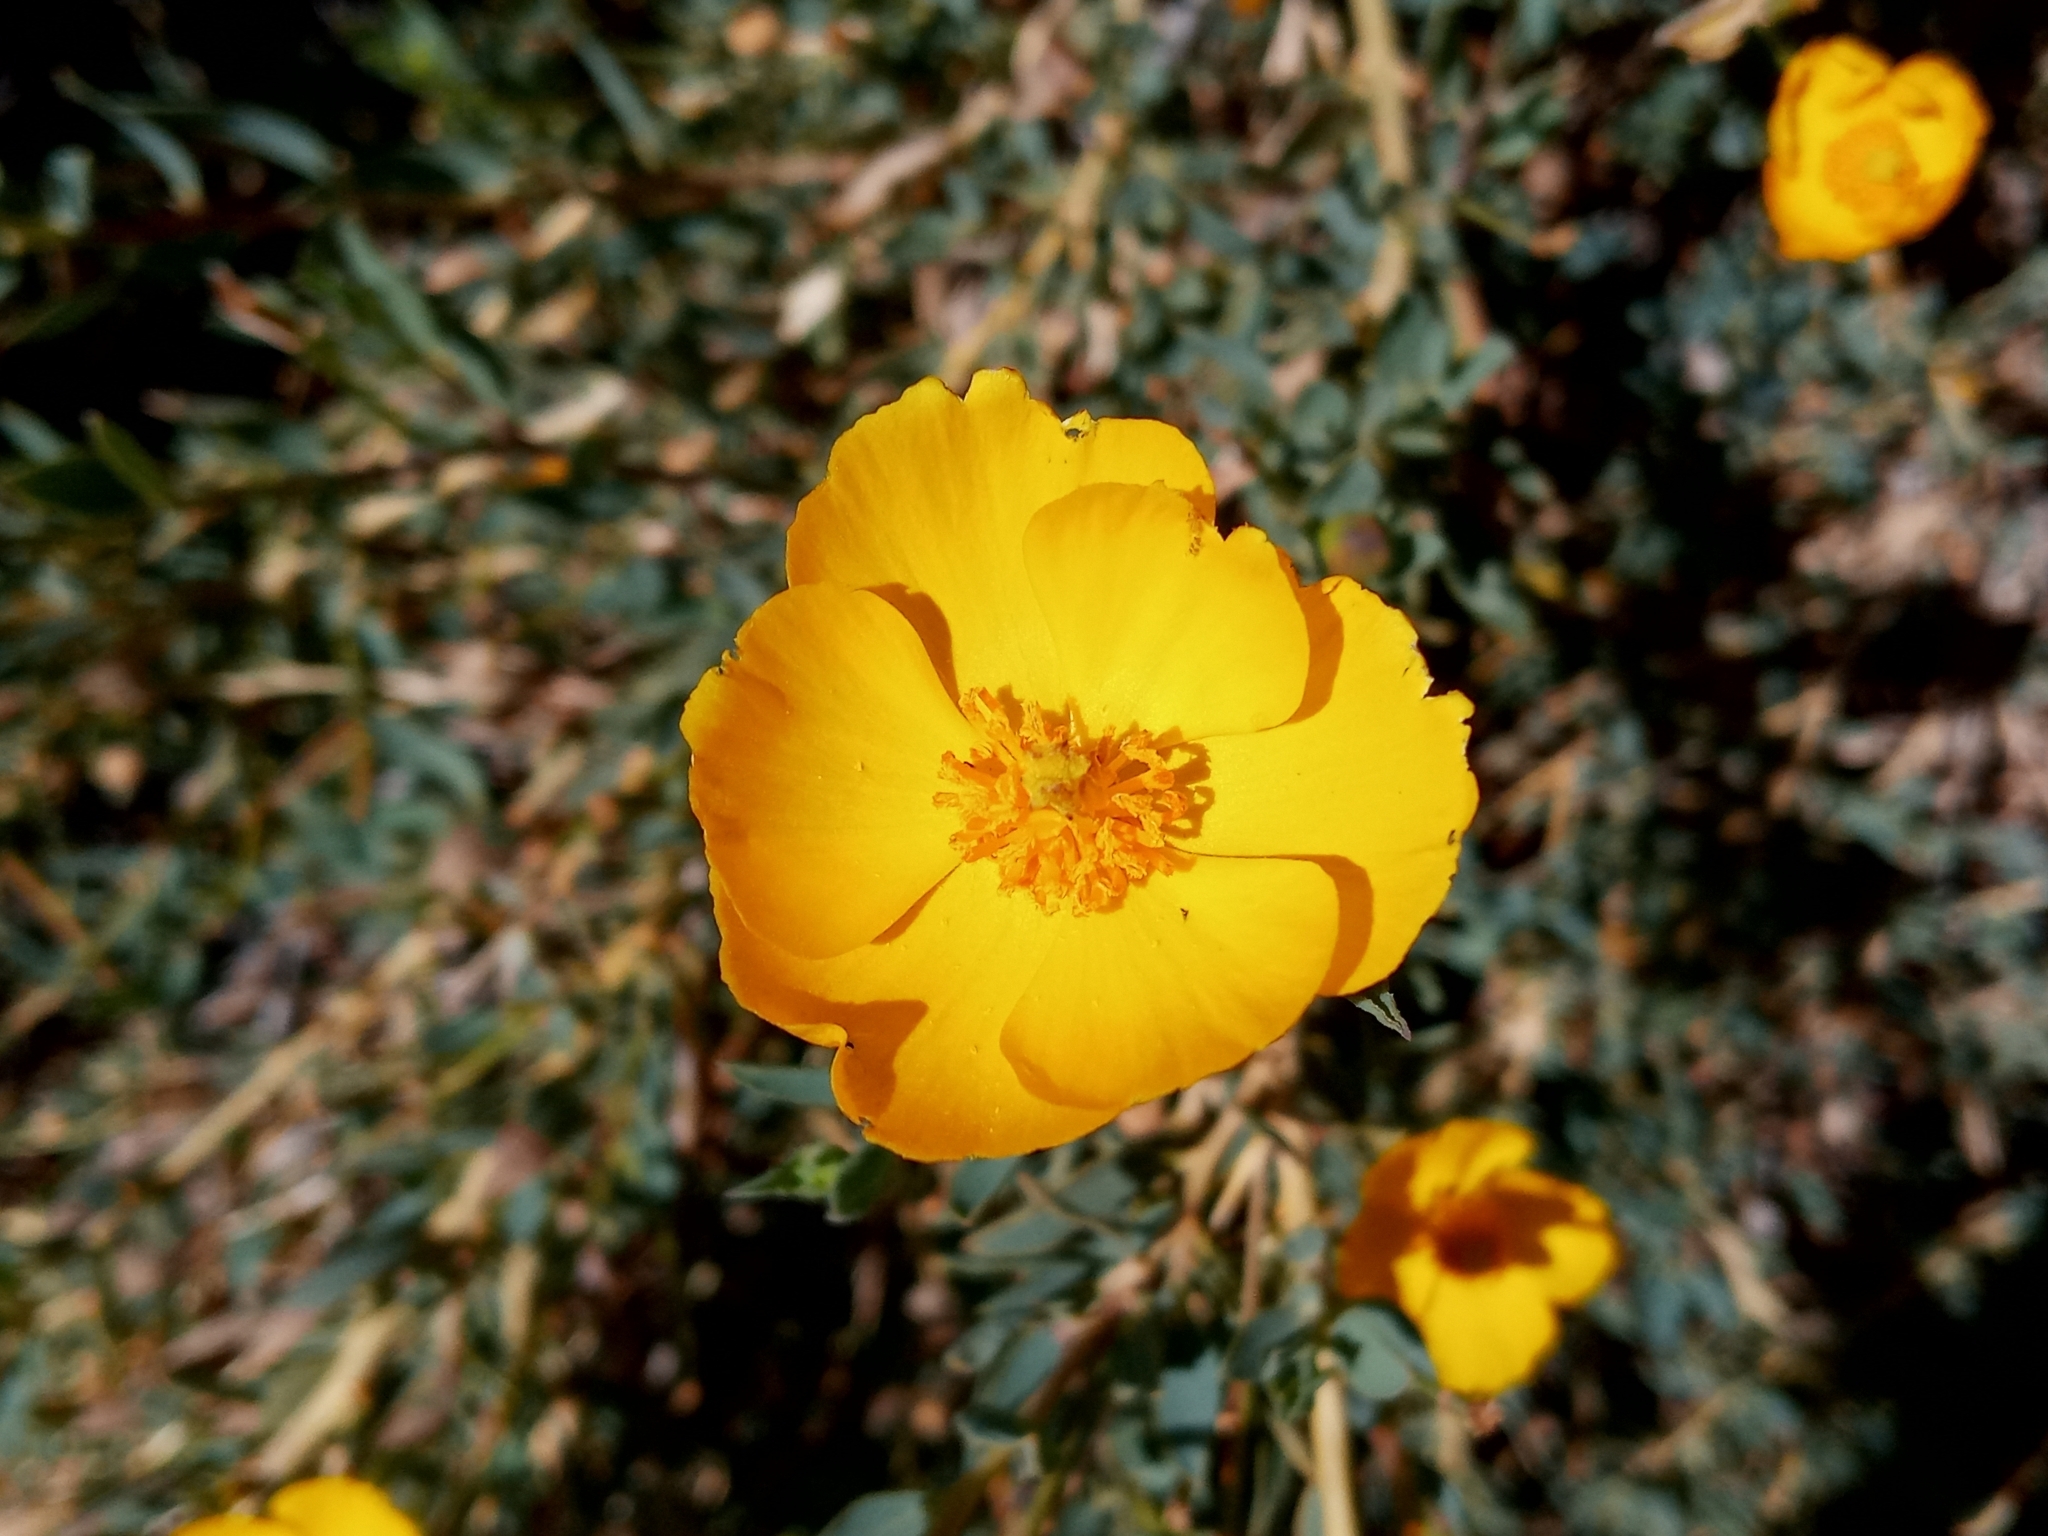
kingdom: Plantae
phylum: Tracheophyta
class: Magnoliopsida
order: Ranunculales
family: Papaveraceae
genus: Dendromecon
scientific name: Dendromecon rigida
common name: Tree poppy
